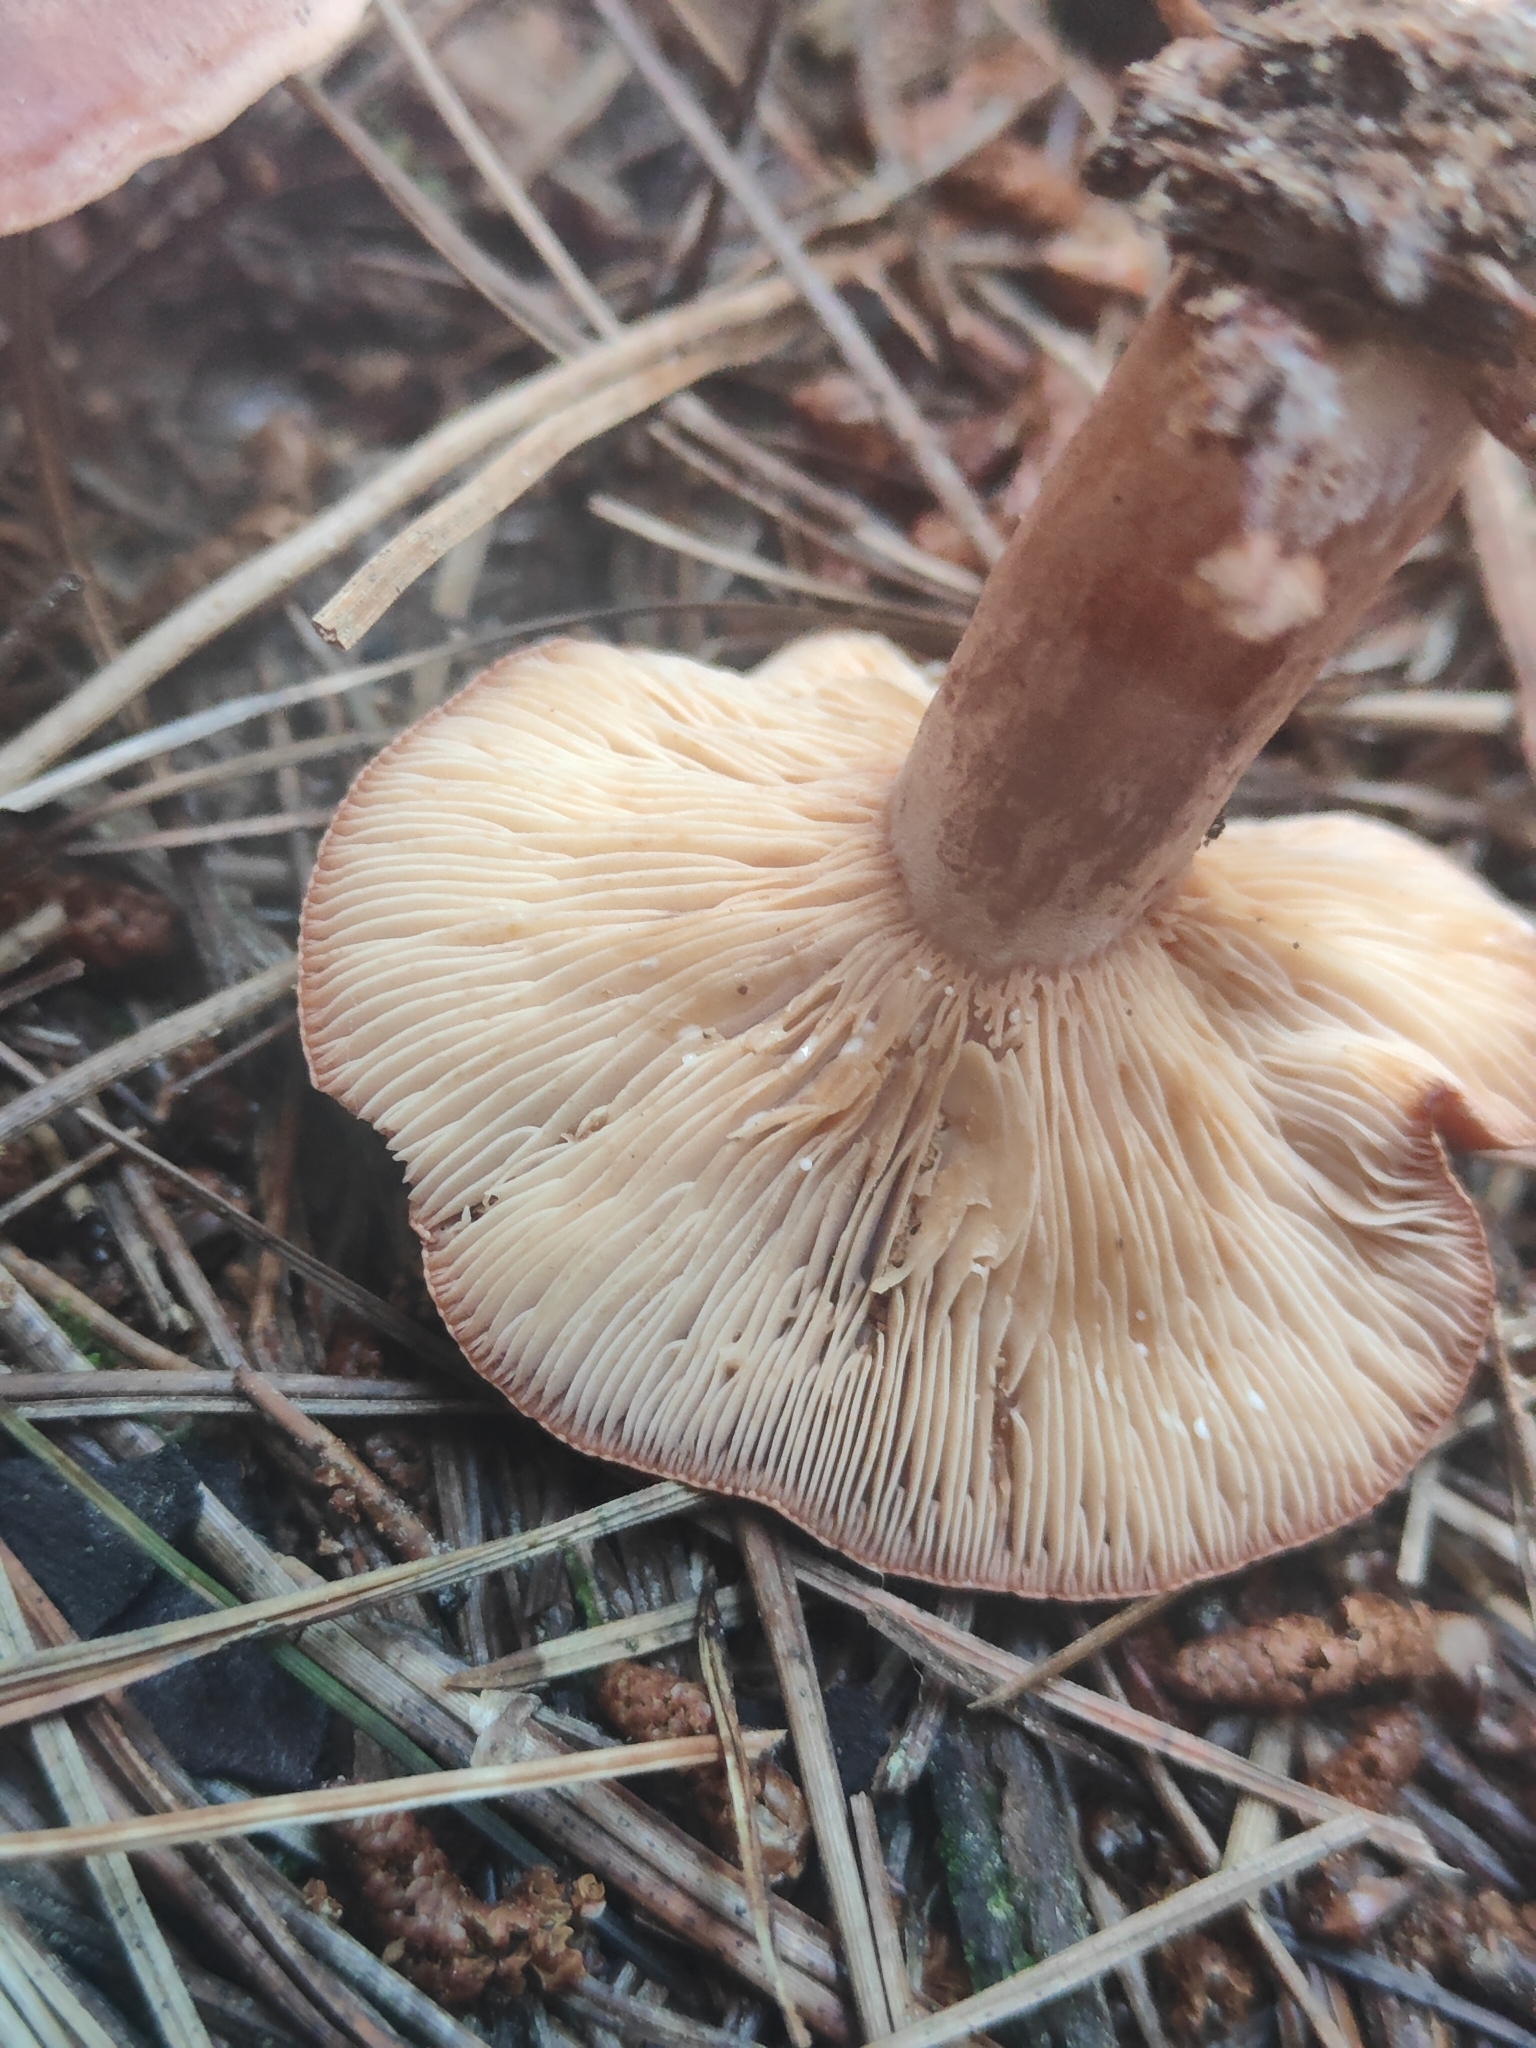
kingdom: Fungi
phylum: Basidiomycota
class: Agaricomycetes
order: Russulales
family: Russulaceae
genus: Lactarius
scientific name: Lactarius rufus
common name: Rufous milk-cap
